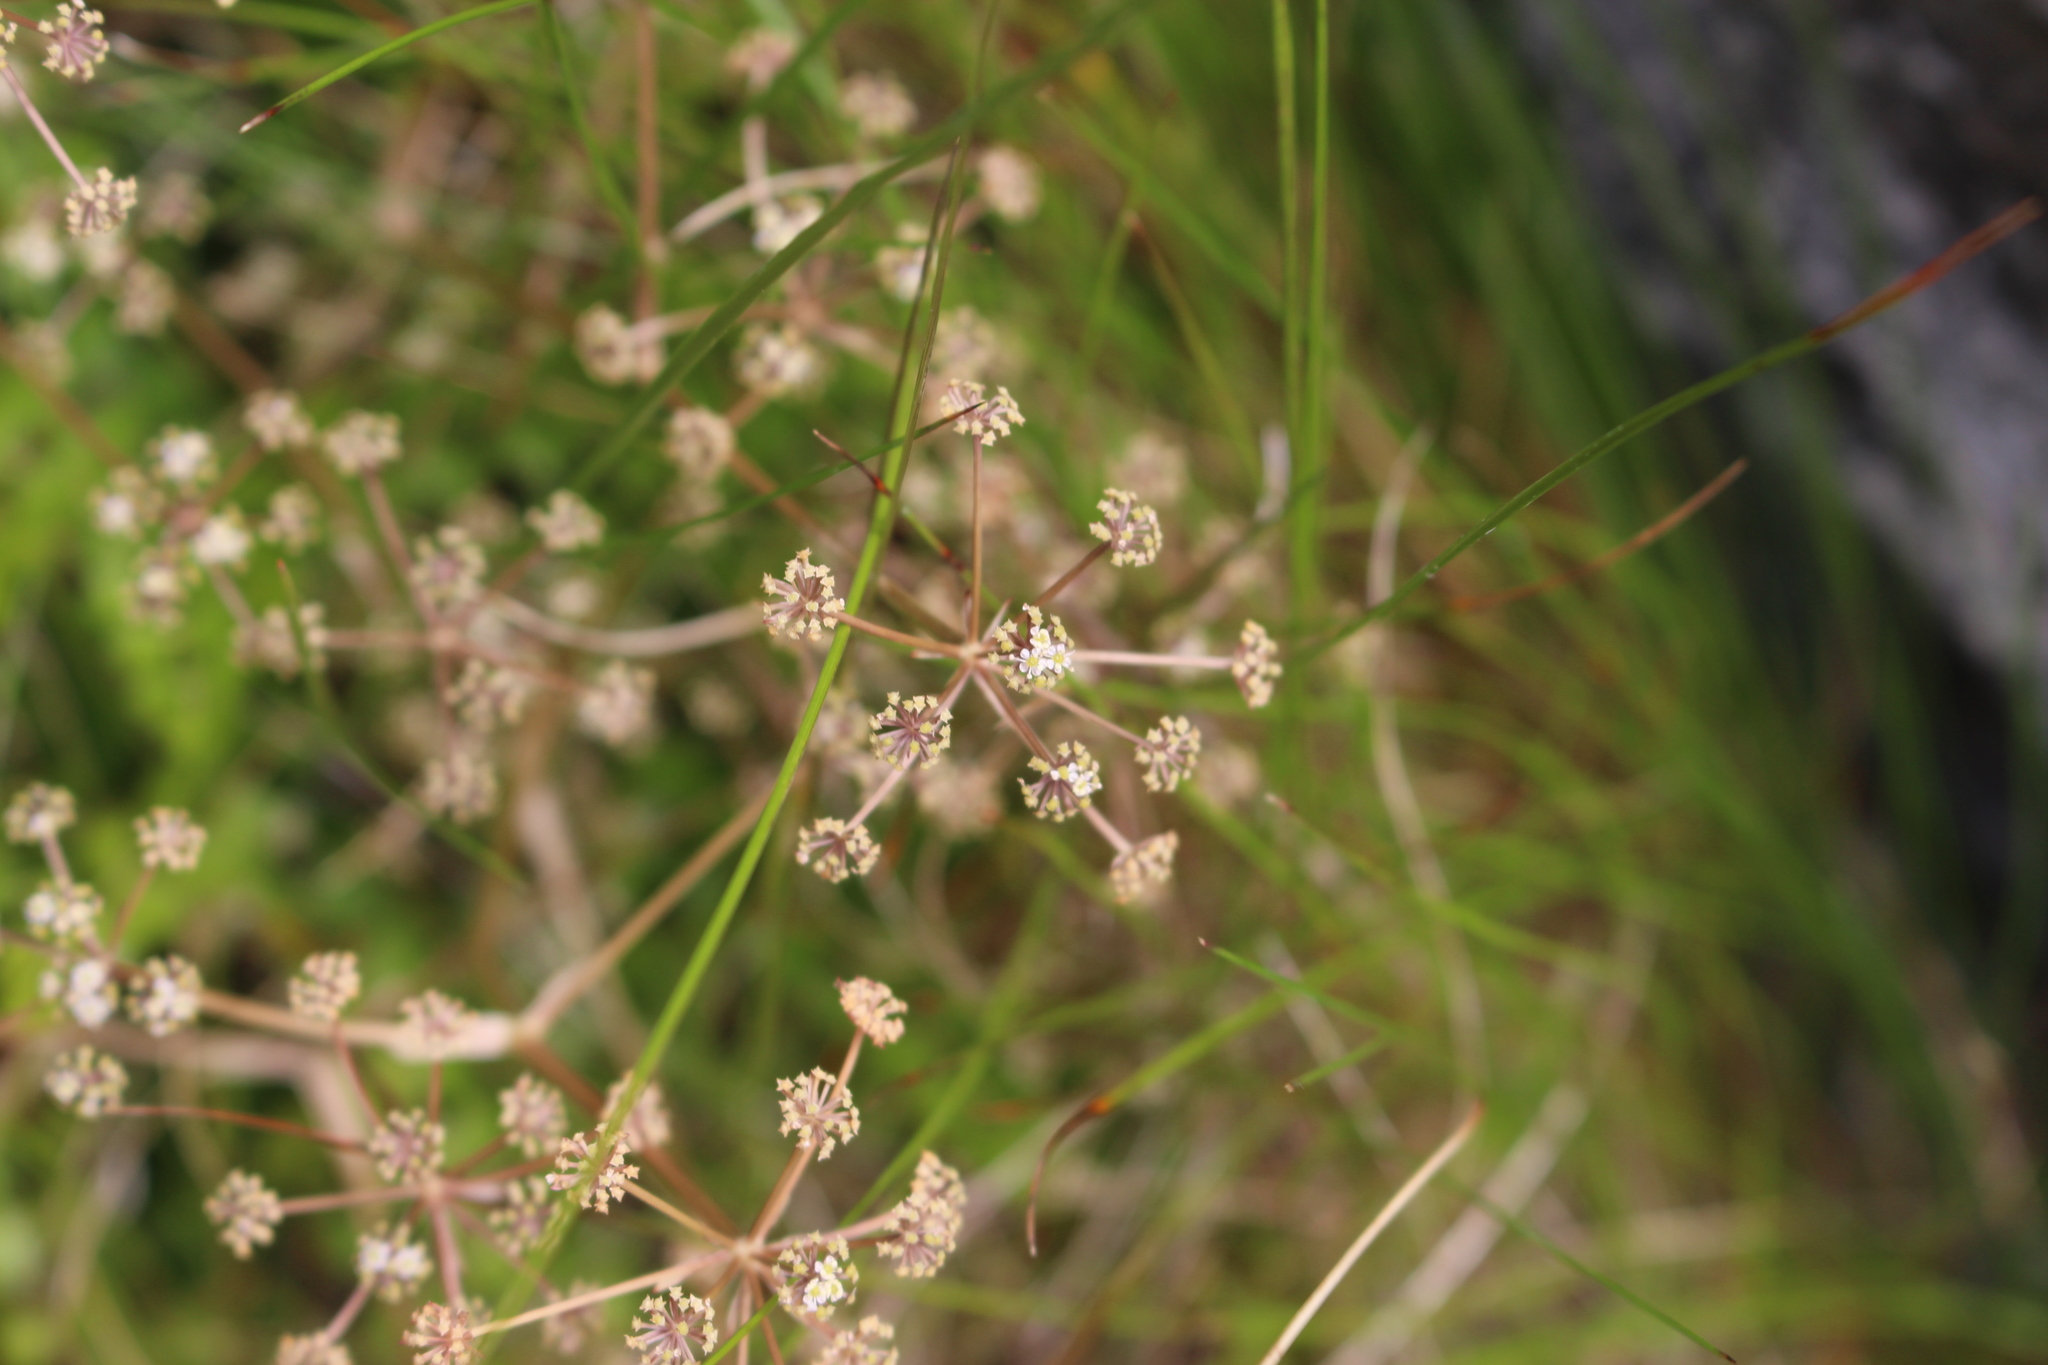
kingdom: Plantae
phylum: Tracheophyta
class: Magnoliopsida
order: Apiales
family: Apiaceae
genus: Anisotome
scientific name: Anisotome aromatica
